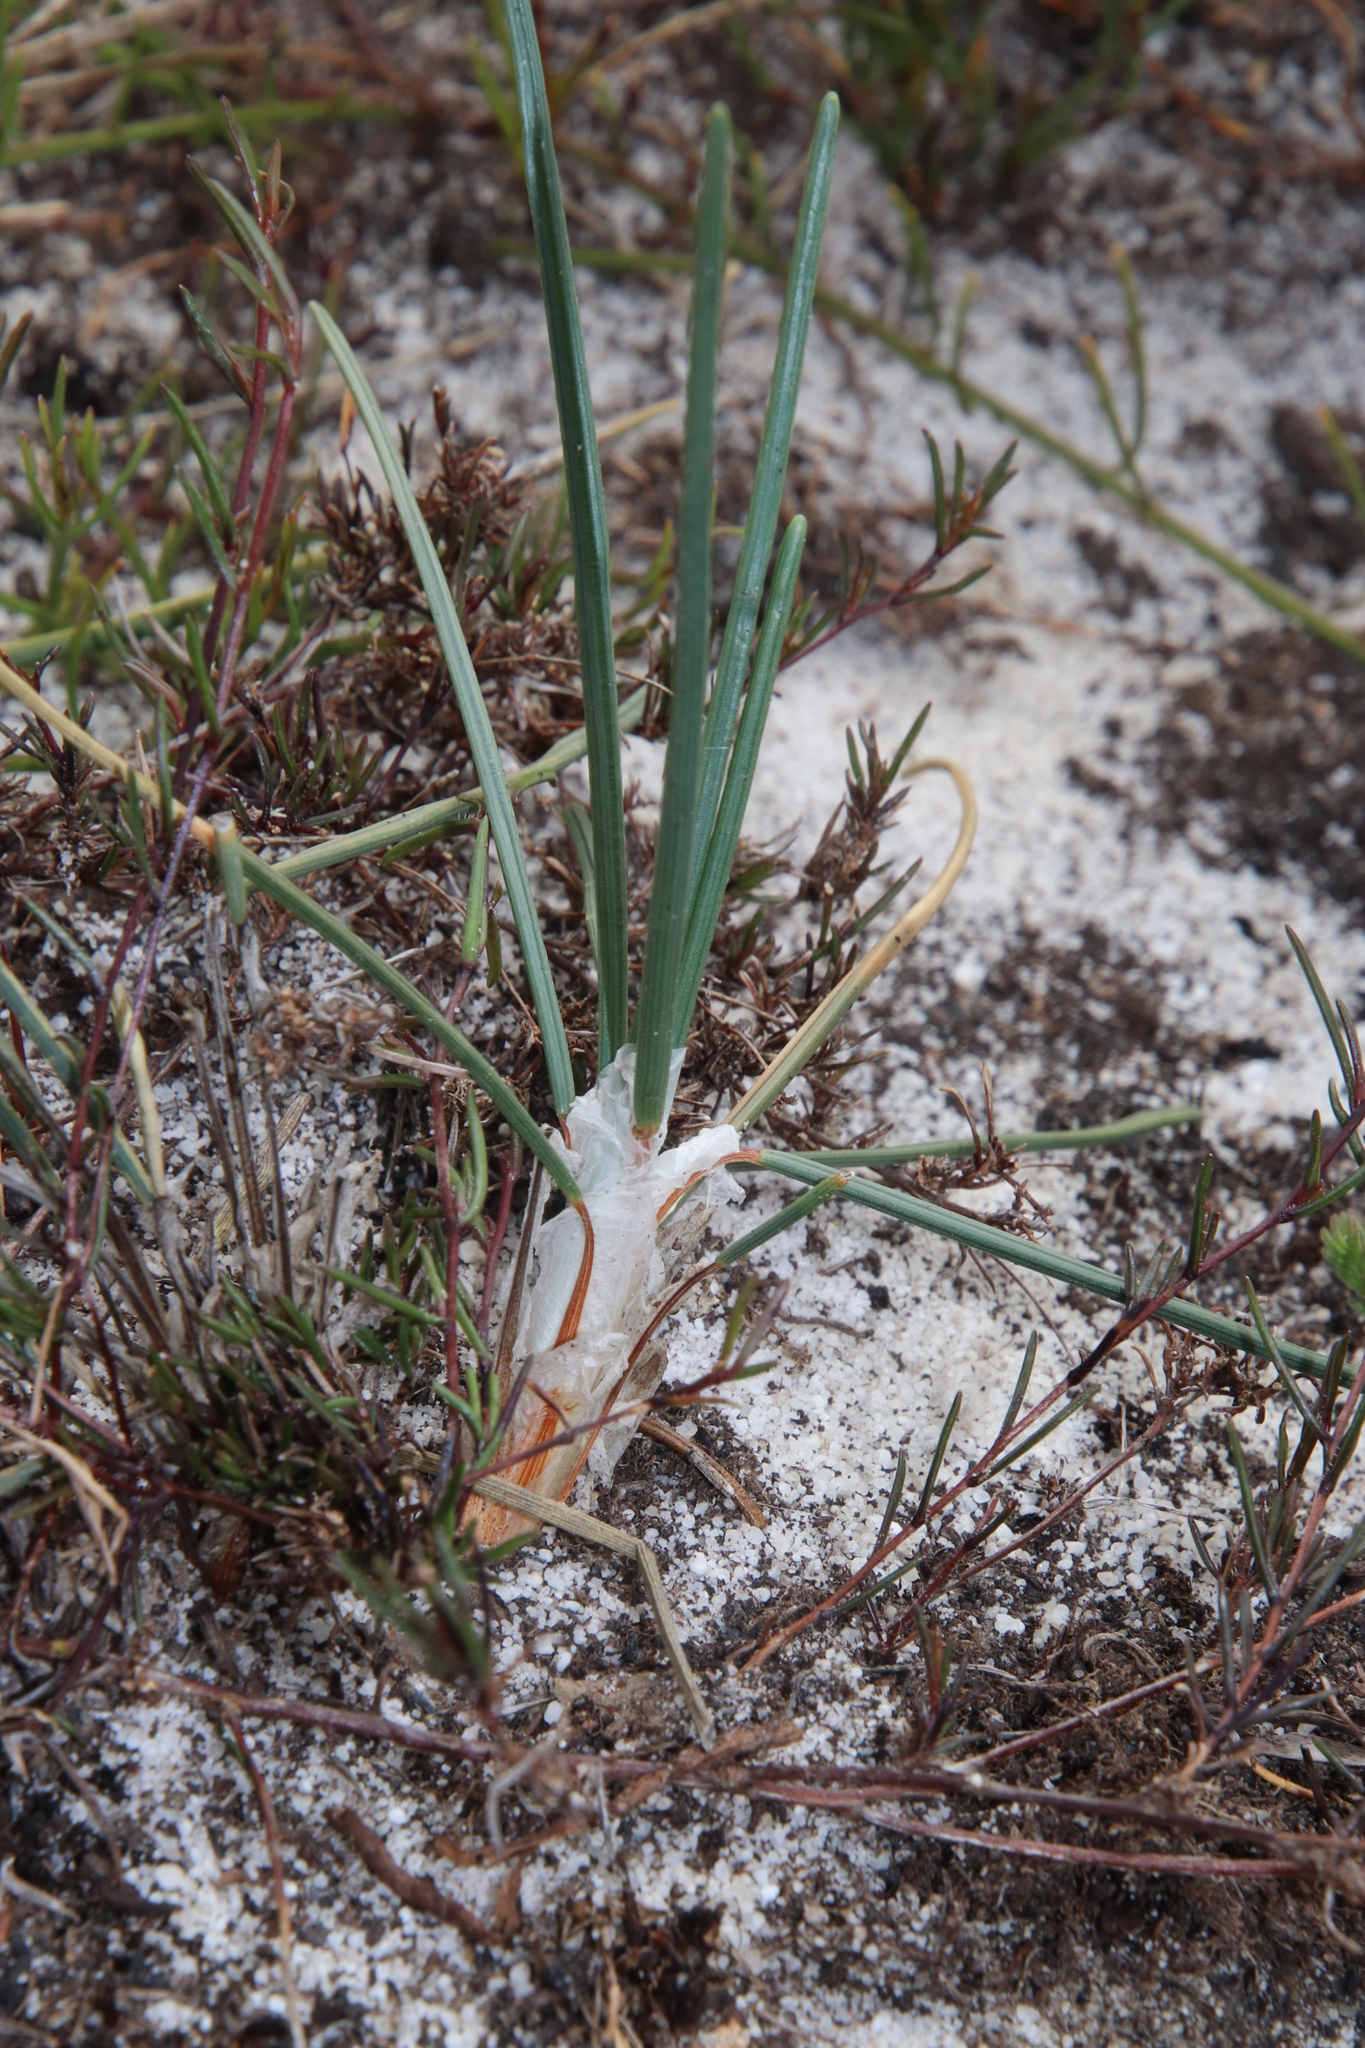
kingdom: Plantae
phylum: Tracheophyta
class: Liliopsida
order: Poales
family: Cyperaceae
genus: Ficinia
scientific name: Ficinia deusta
